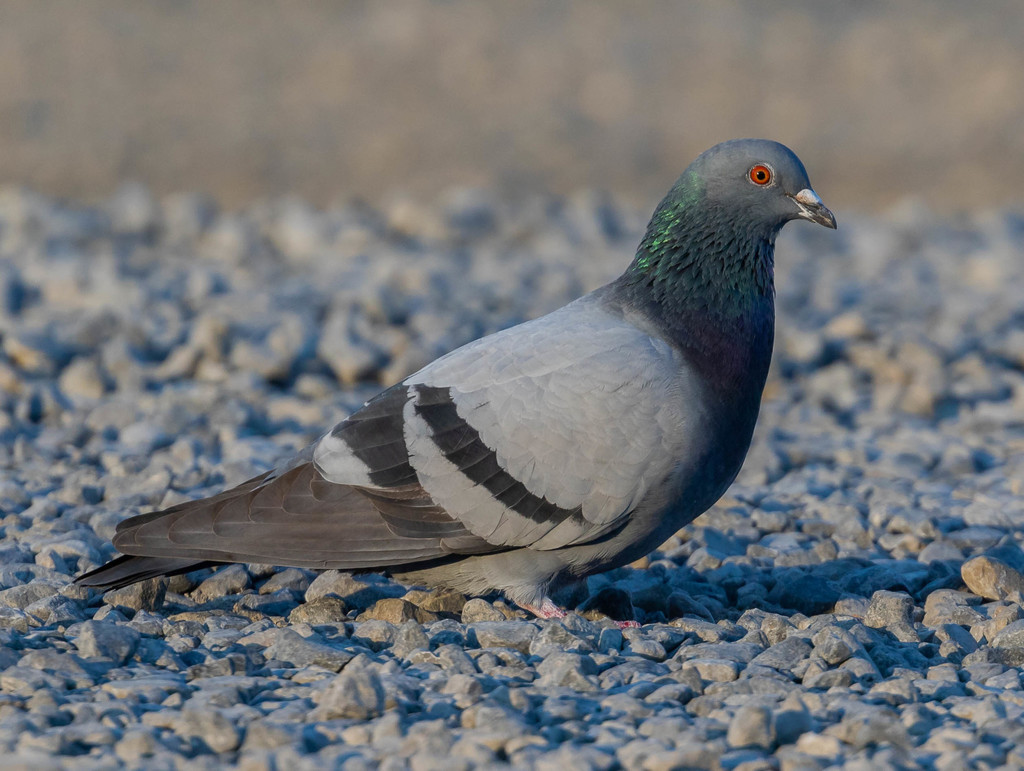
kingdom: Animalia
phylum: Chordata
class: Aves
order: Columbiformes
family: Columbidae
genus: Columba
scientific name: Columba livia
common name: Rock pigeon
